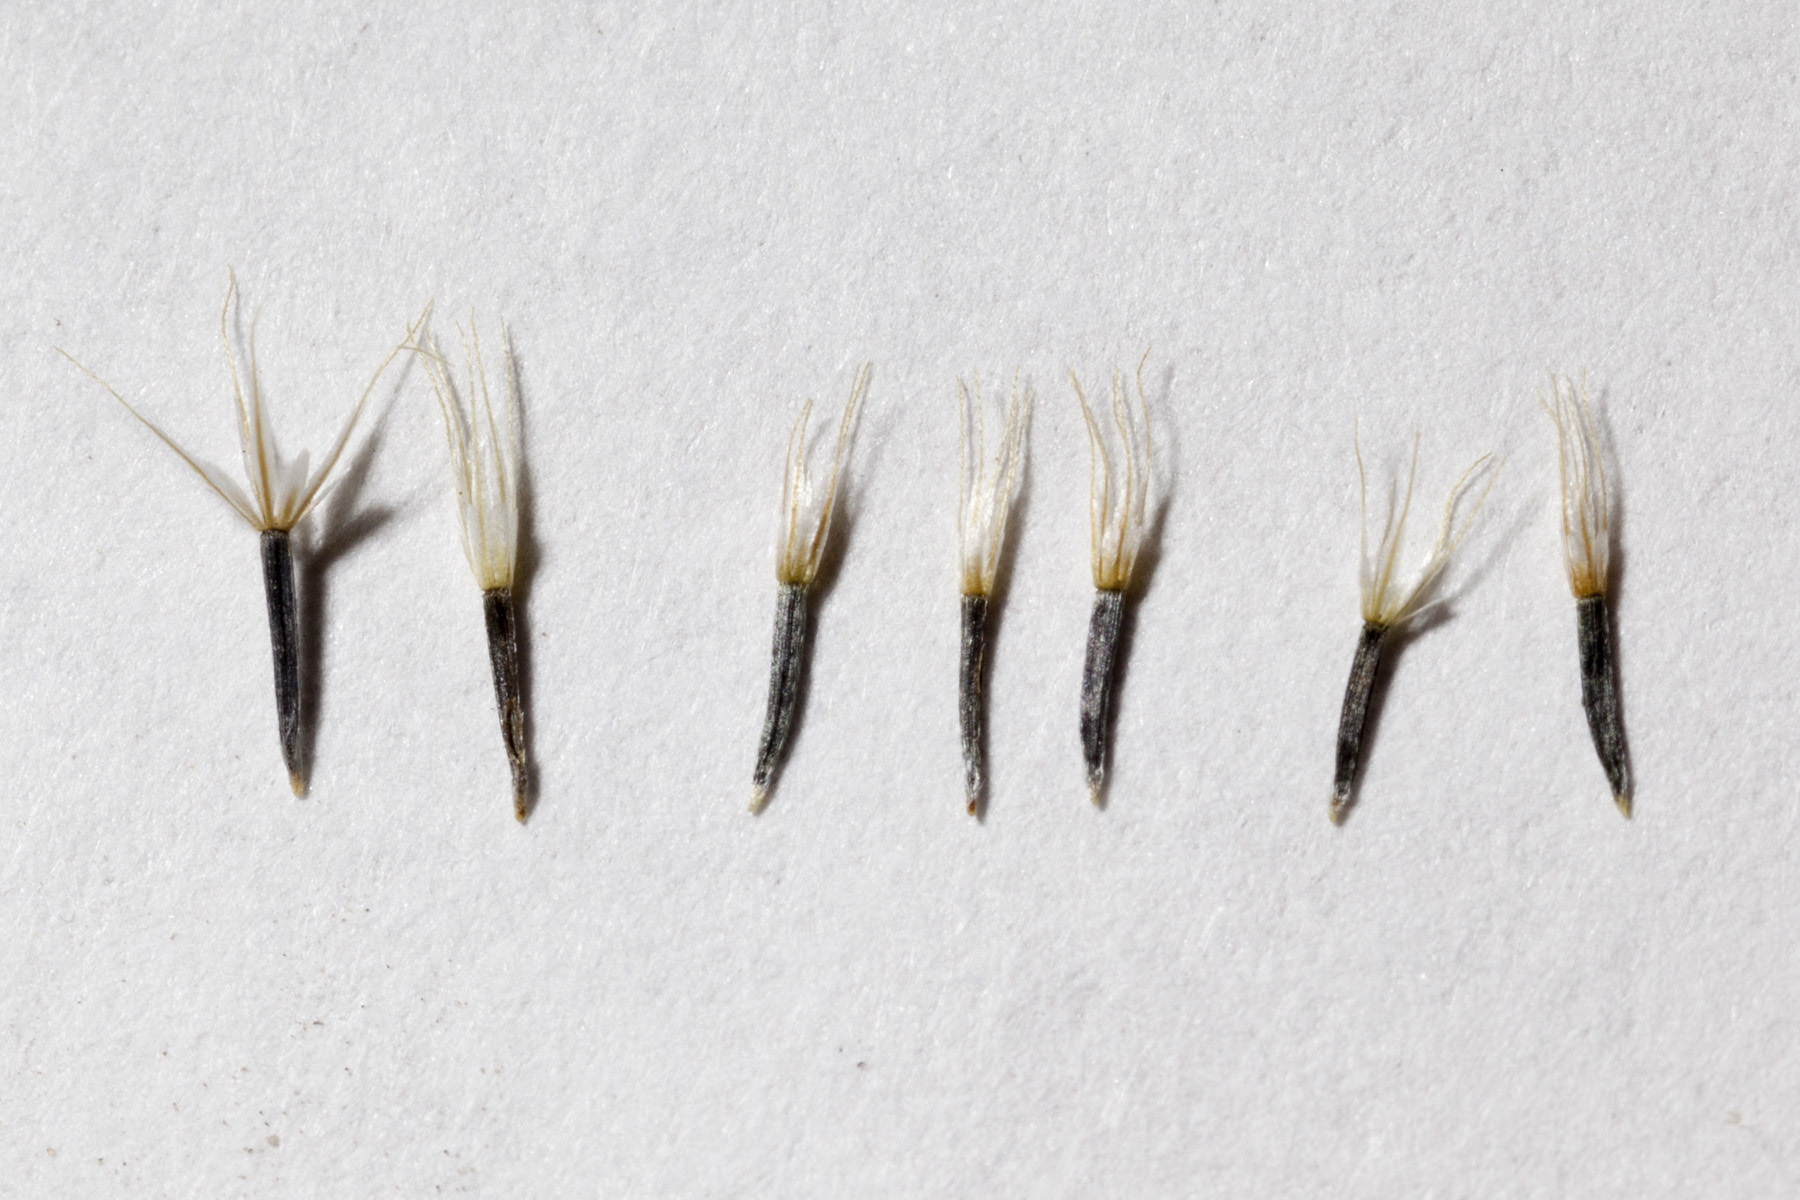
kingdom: Plantae
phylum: Tracheophyta
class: Magnoliopsida
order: Asterales
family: Asteraceae
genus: Thymophylla
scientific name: Thymophylla pentachaeta
